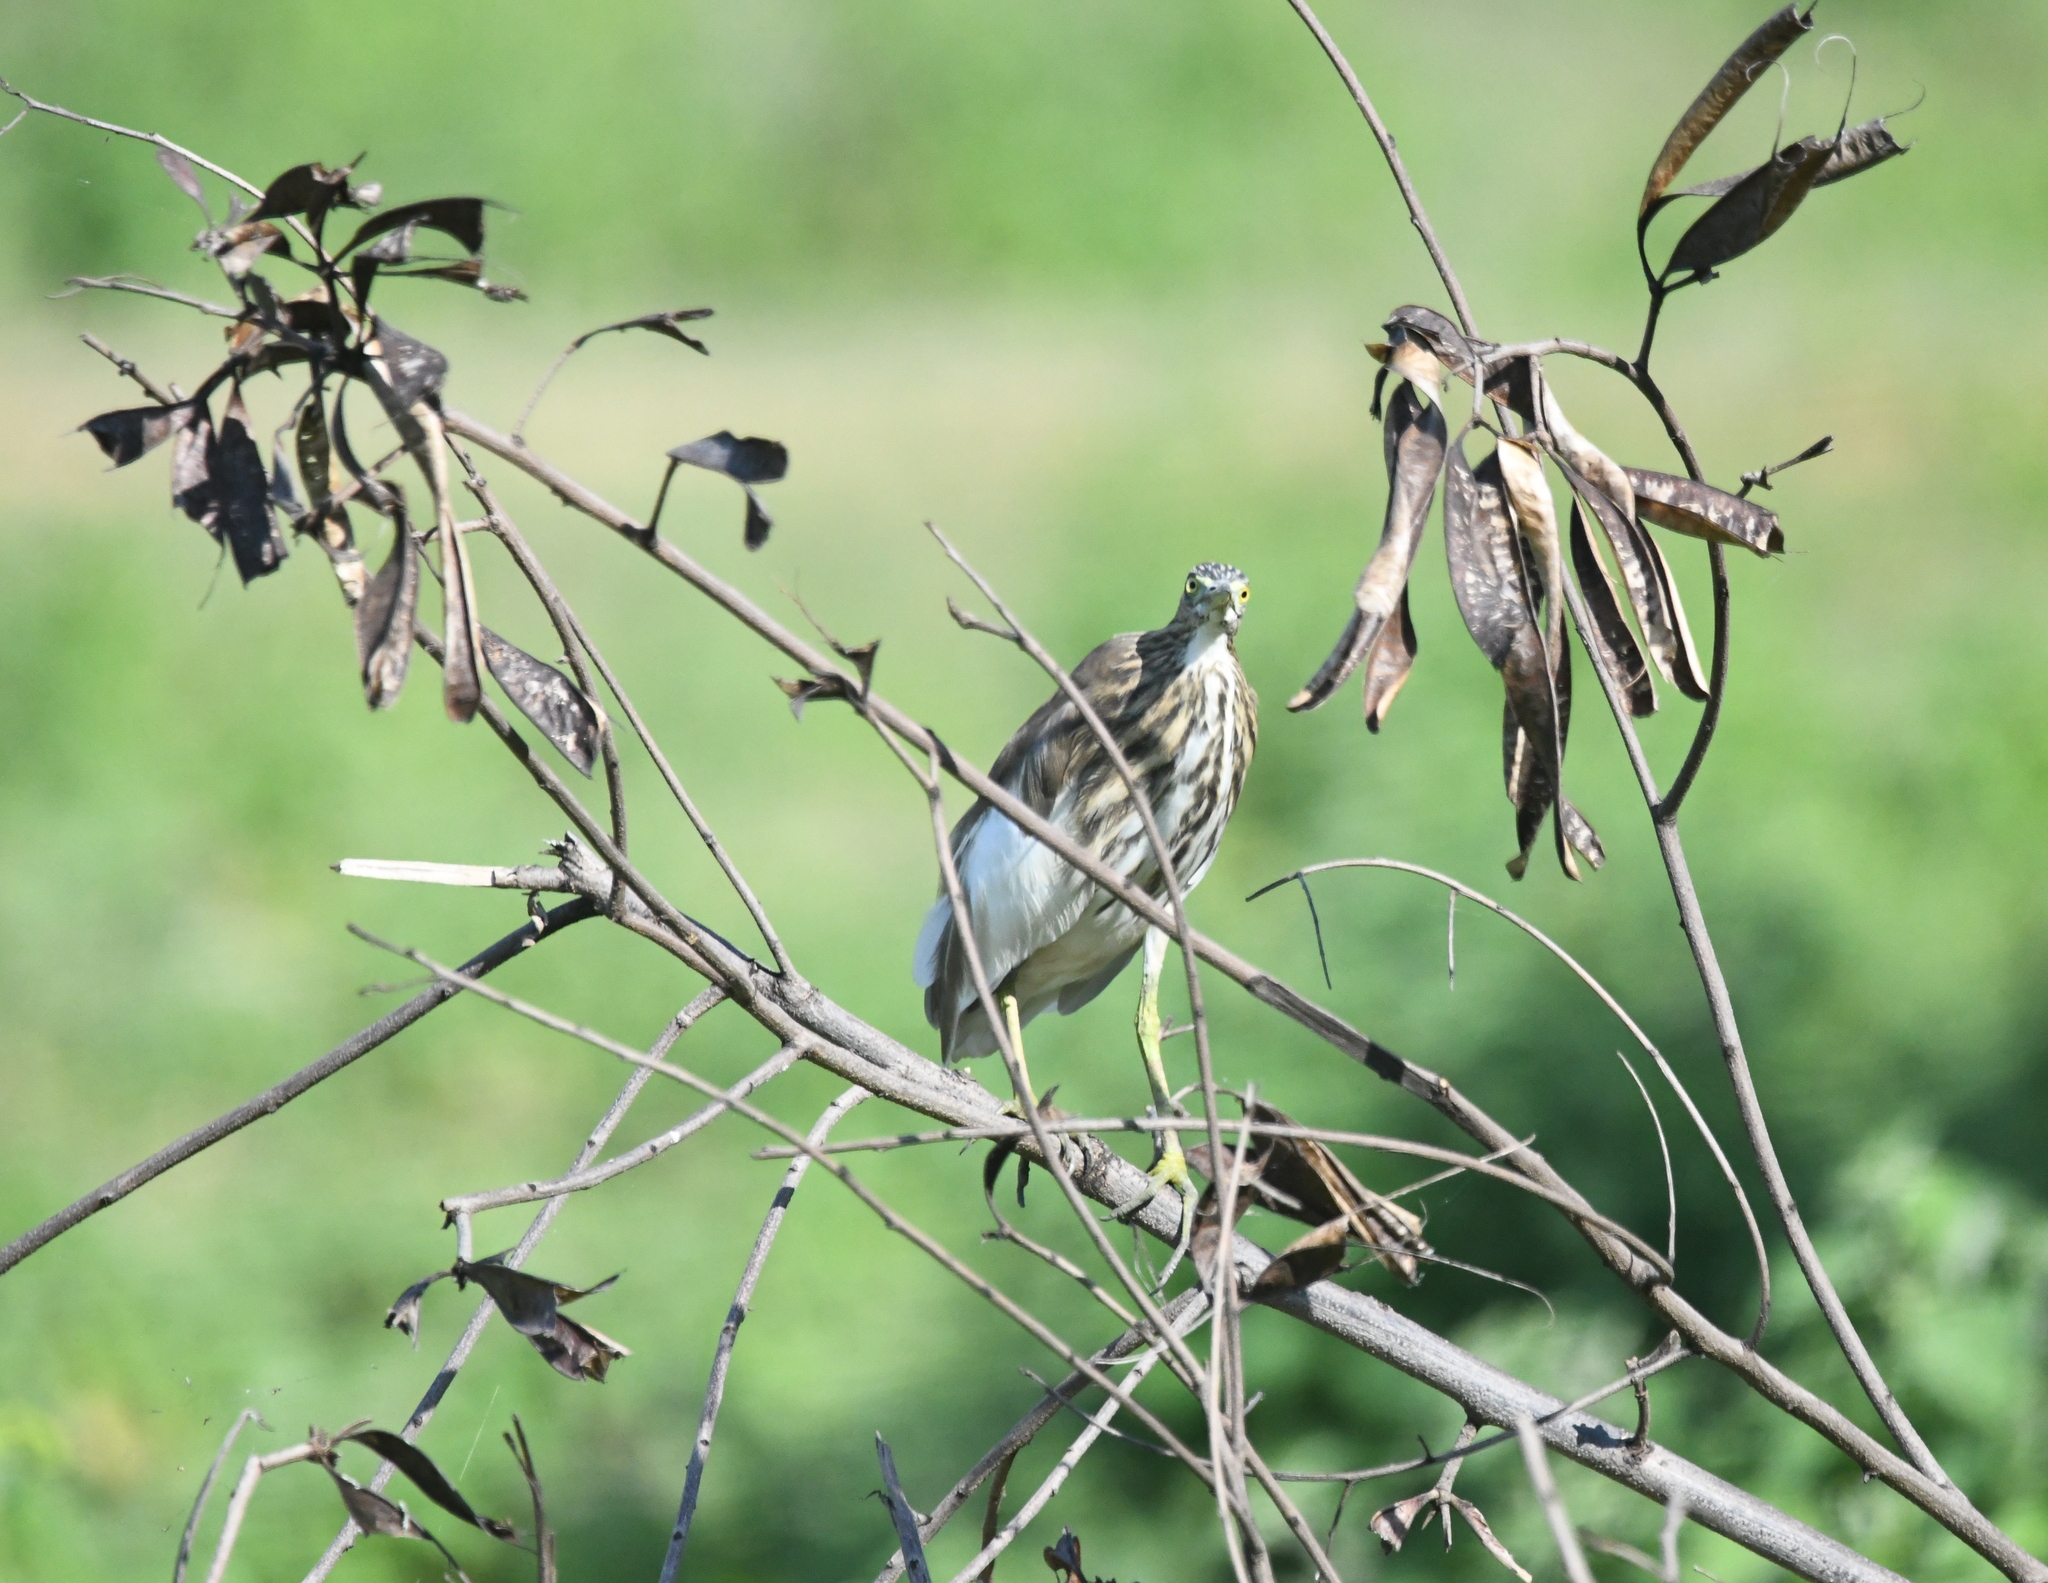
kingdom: Animalia
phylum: Chordata
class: Aves
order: Pelecaniformes
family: Ardeidae
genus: Ardeola
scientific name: Ardeola grayii
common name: Indian pond heron
